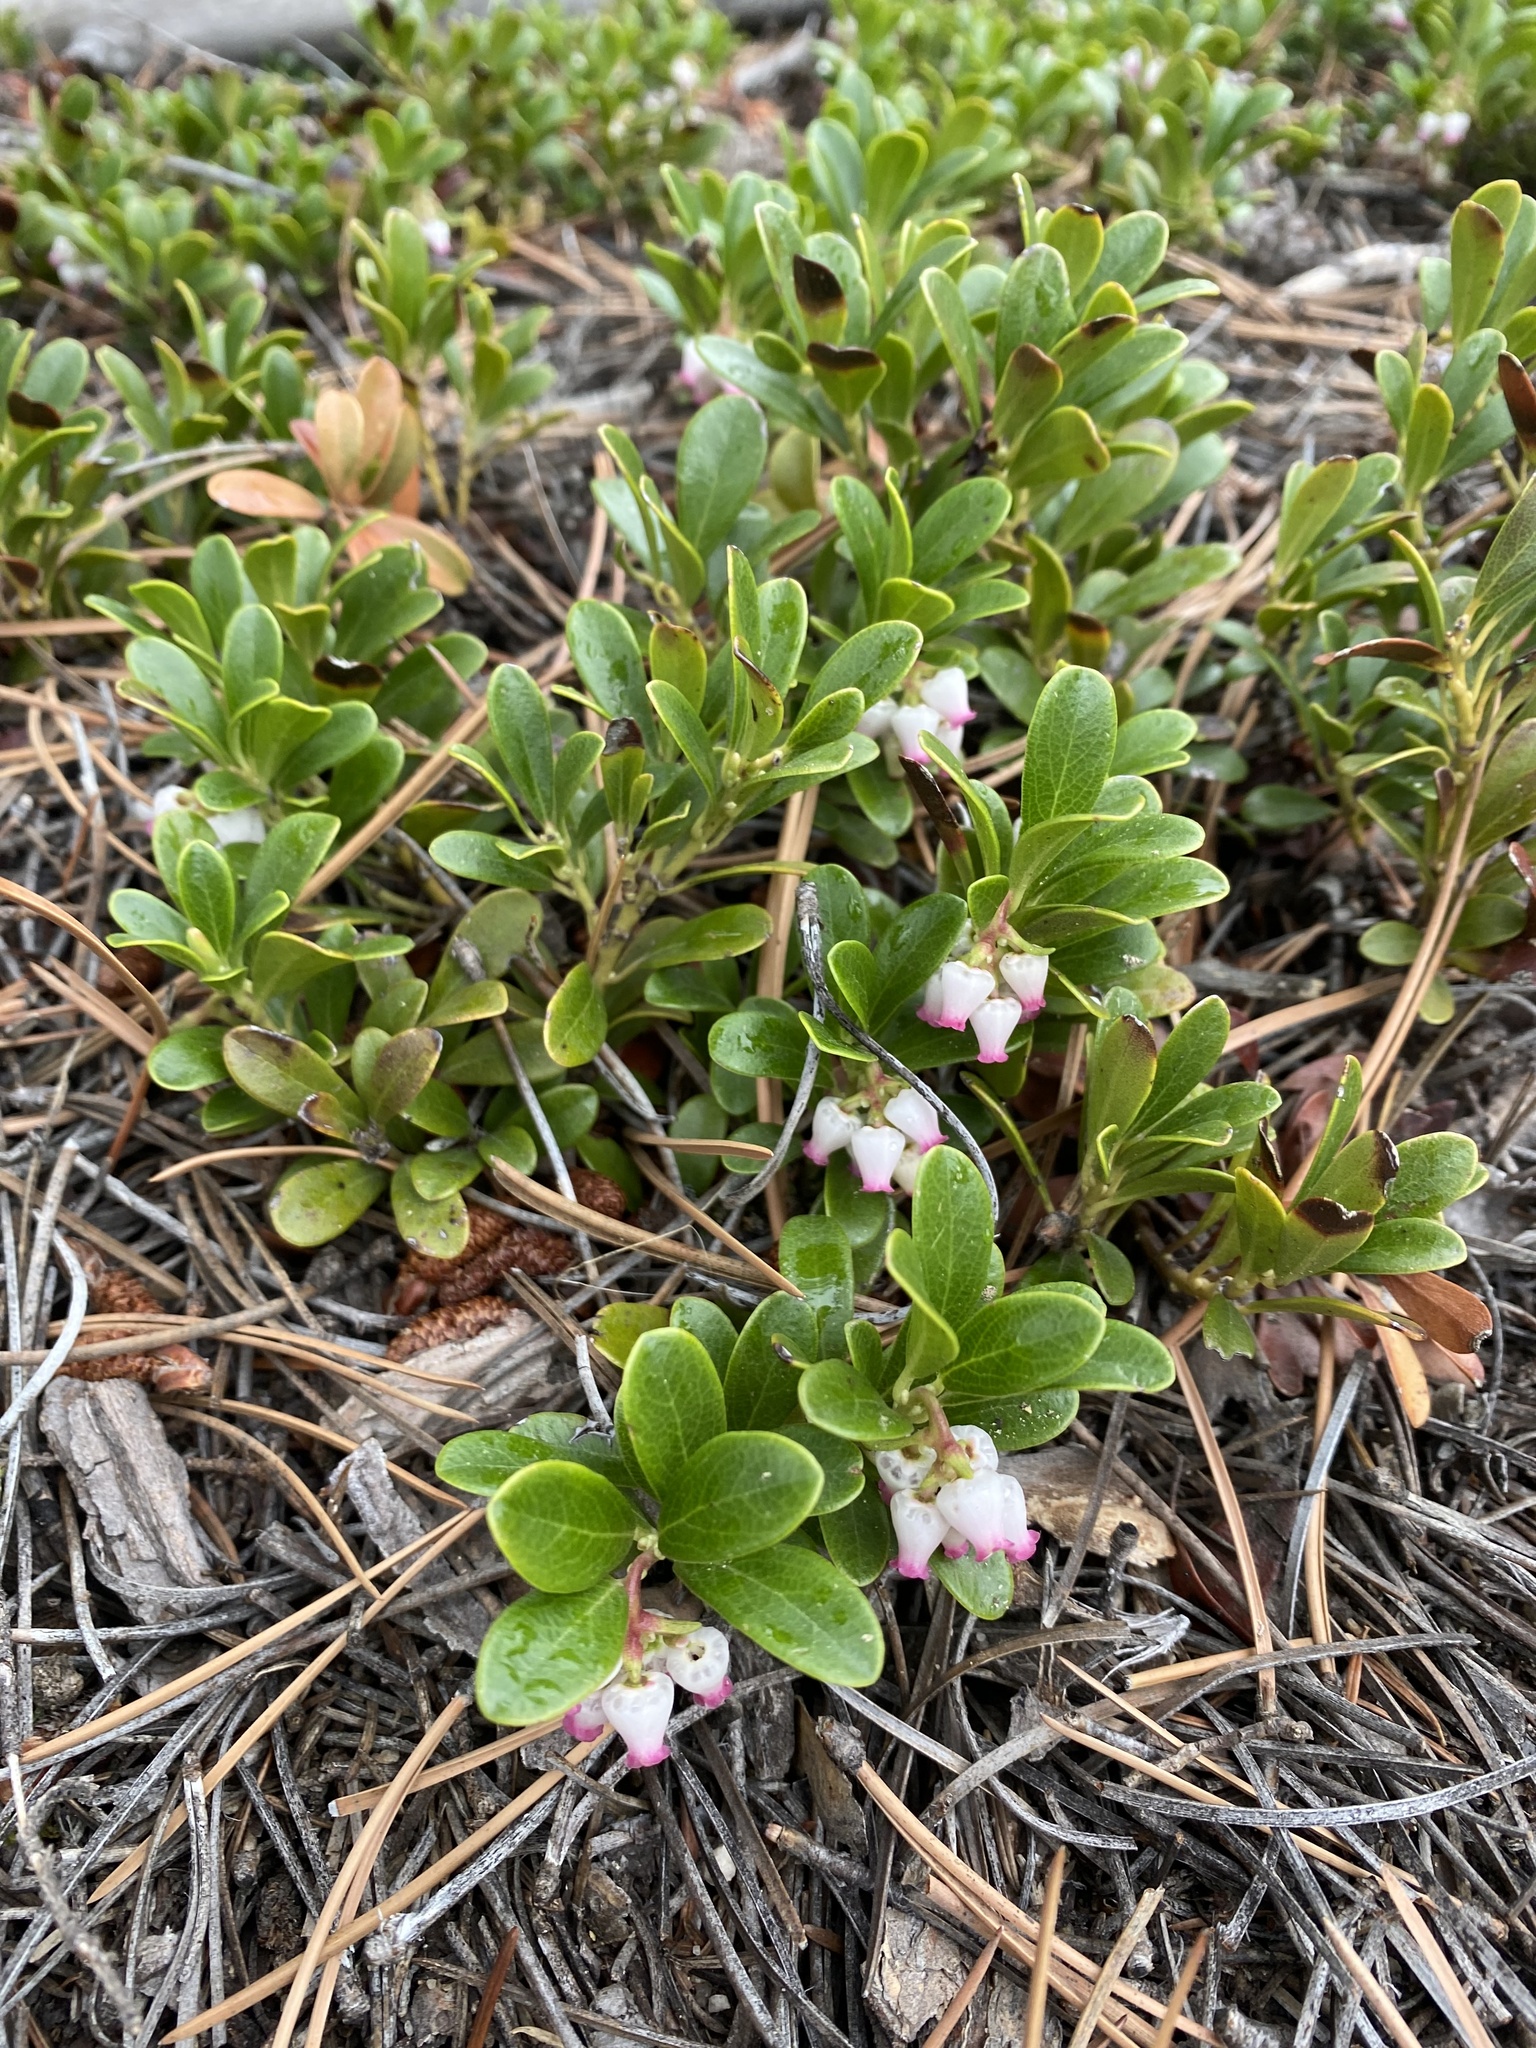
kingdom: Plantae
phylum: Tracheophyta
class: Magnoliopsida
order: Ericales
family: Ericaceae
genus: Arctostaphylos
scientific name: Arctostaphylos uva-ursi
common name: Bearberry
